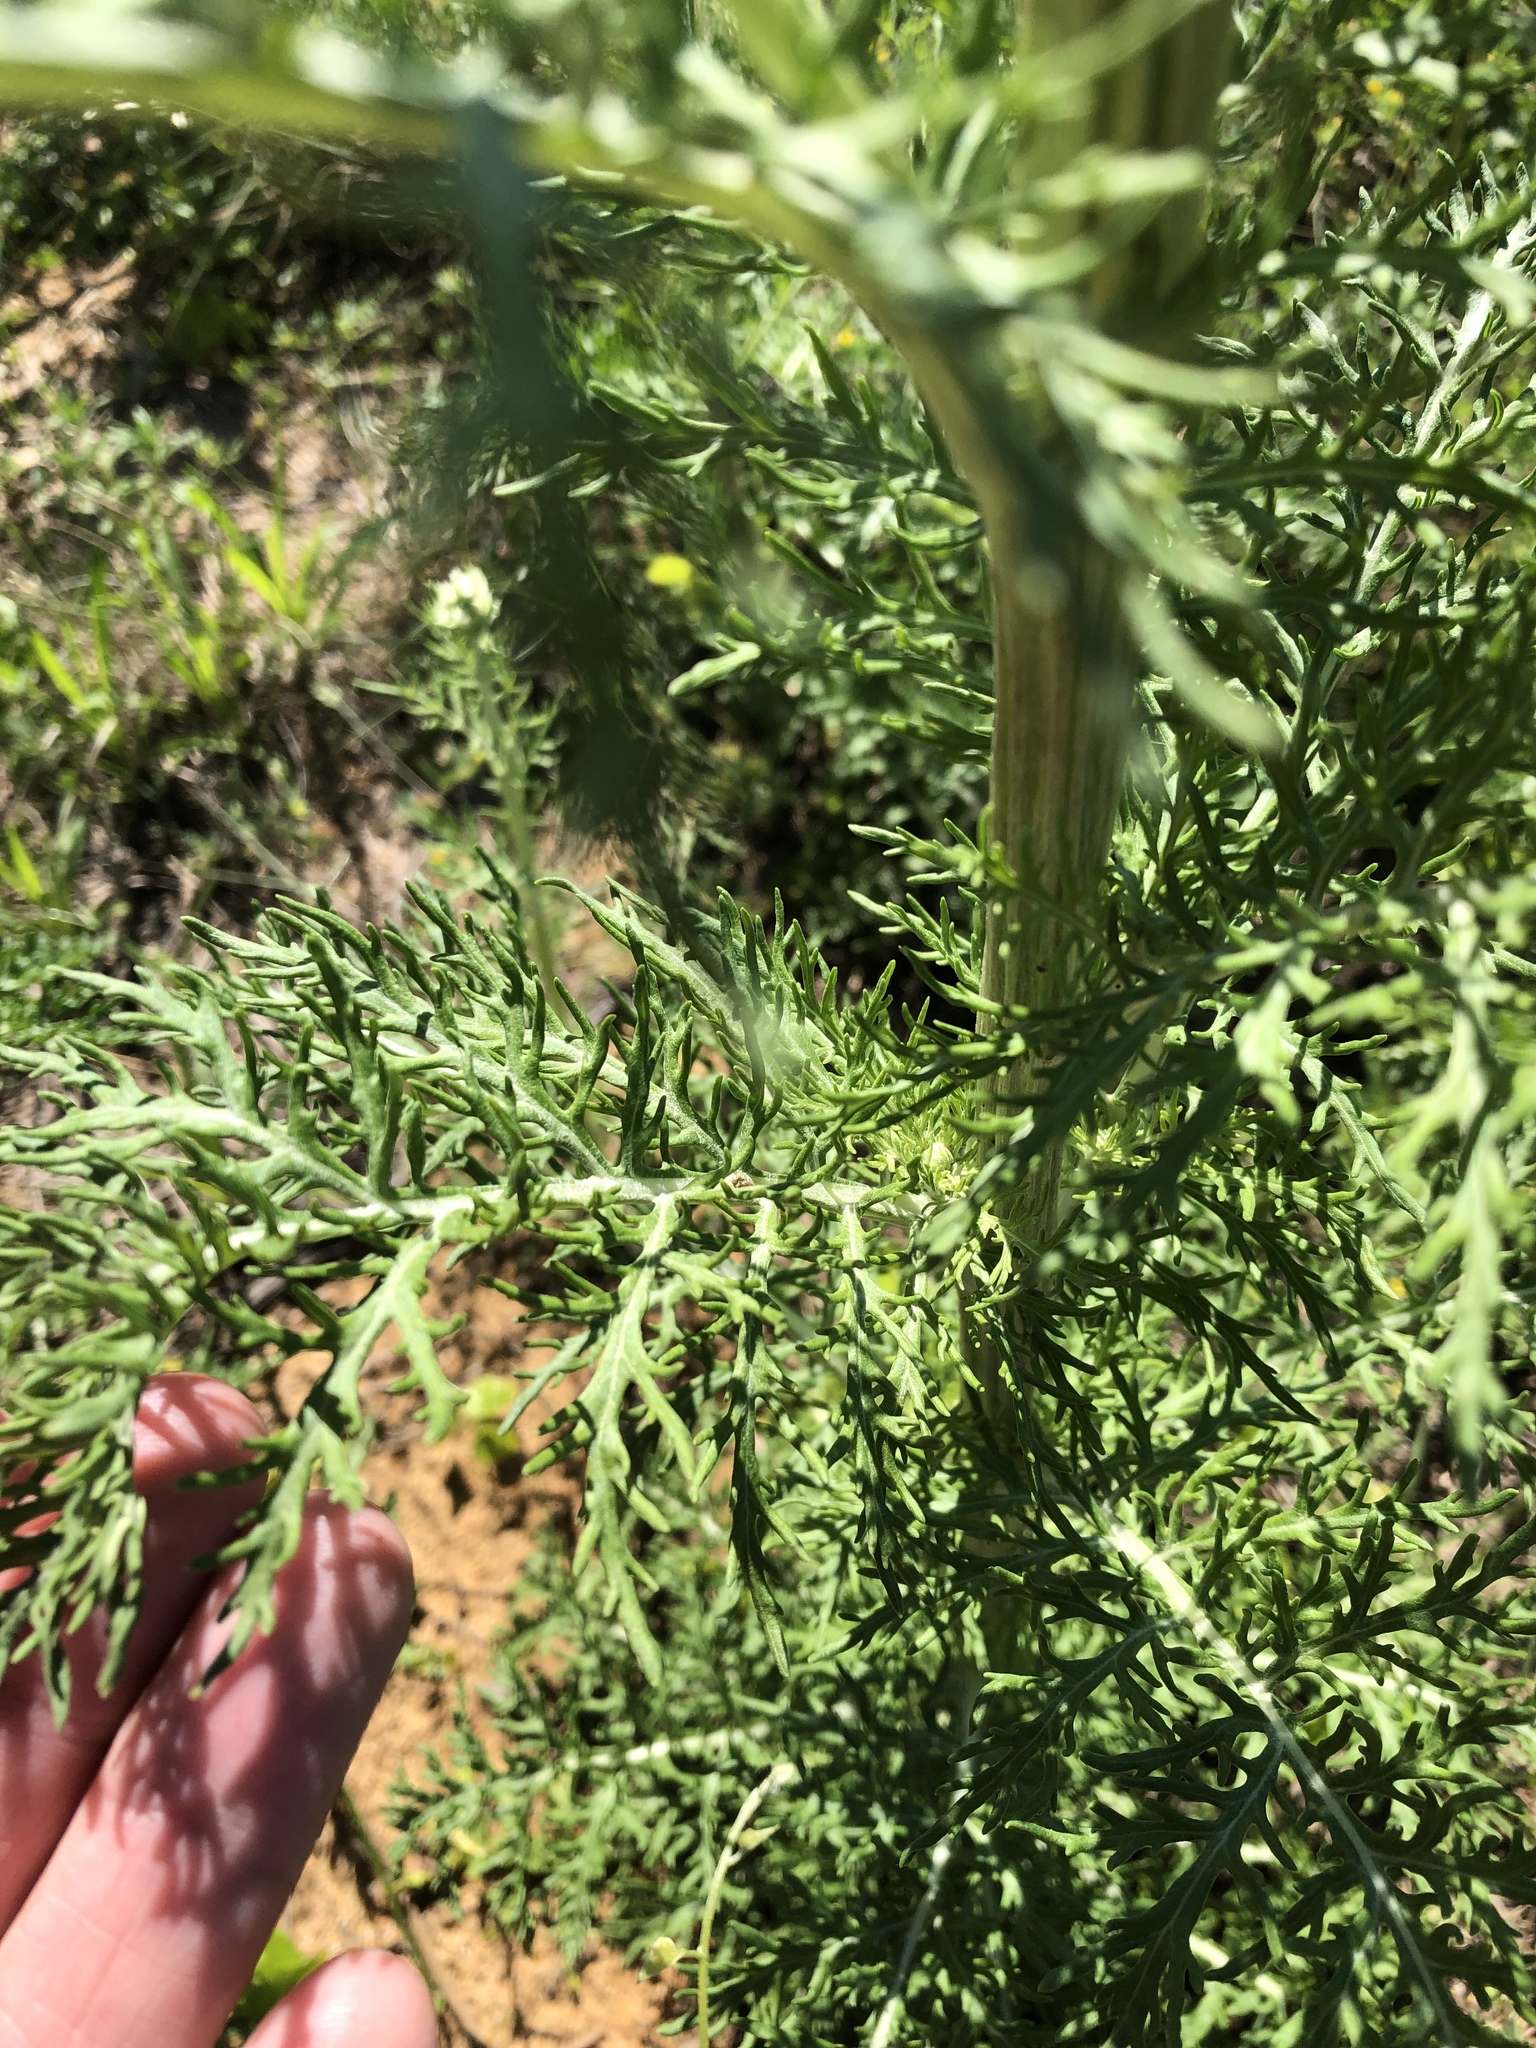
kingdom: Plantae
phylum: Tracheophyta
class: Magnoliopsida
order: Asterales
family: Asteraceae
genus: Hymenopappus
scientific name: Hymenopappus scabiosaeus
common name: Carolina woollywhite
